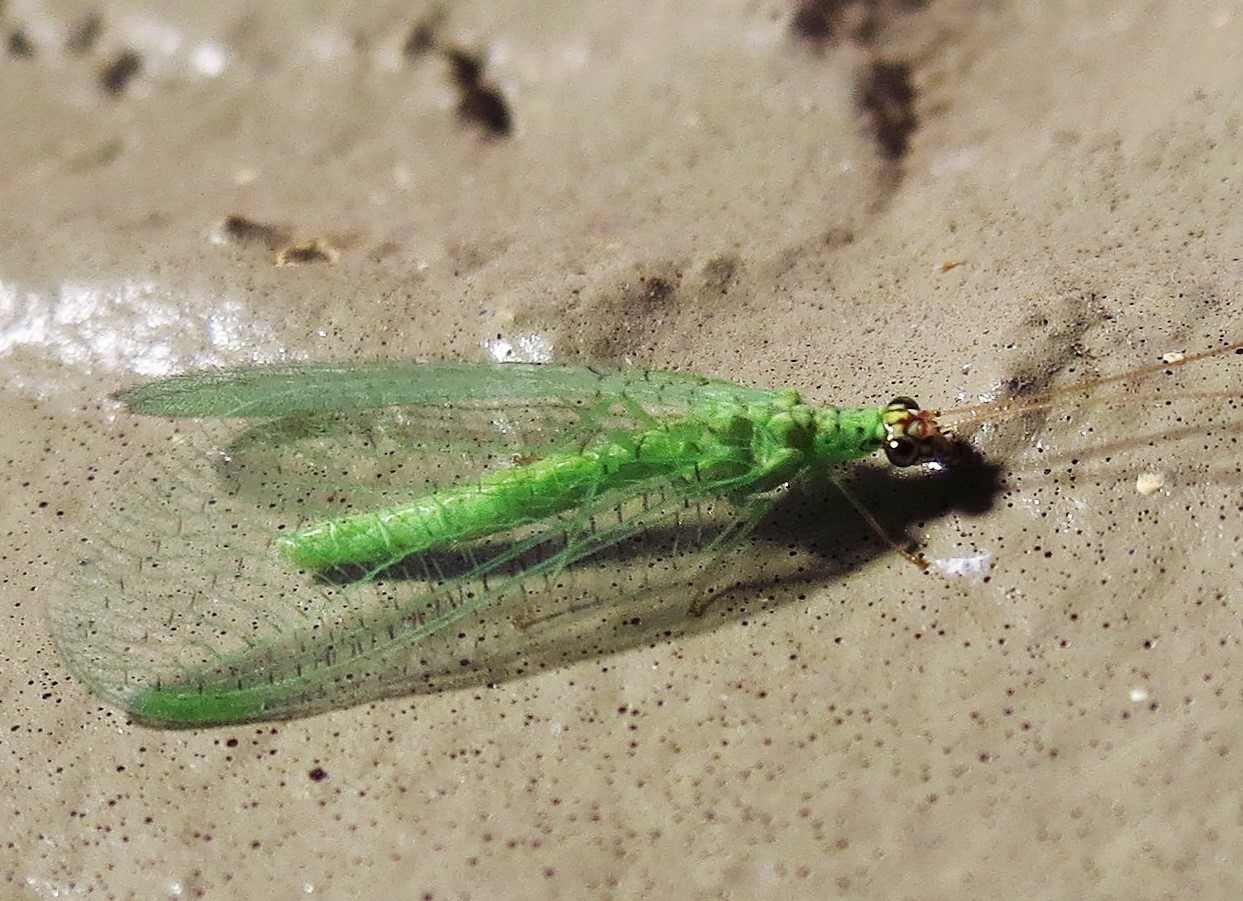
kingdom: Animalia
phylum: Arthropoda
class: Insecta
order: Neuroptera
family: Chrysopidae
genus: Chrysopa
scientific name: Chrysopa oculata
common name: Golden-eyed lacewing
